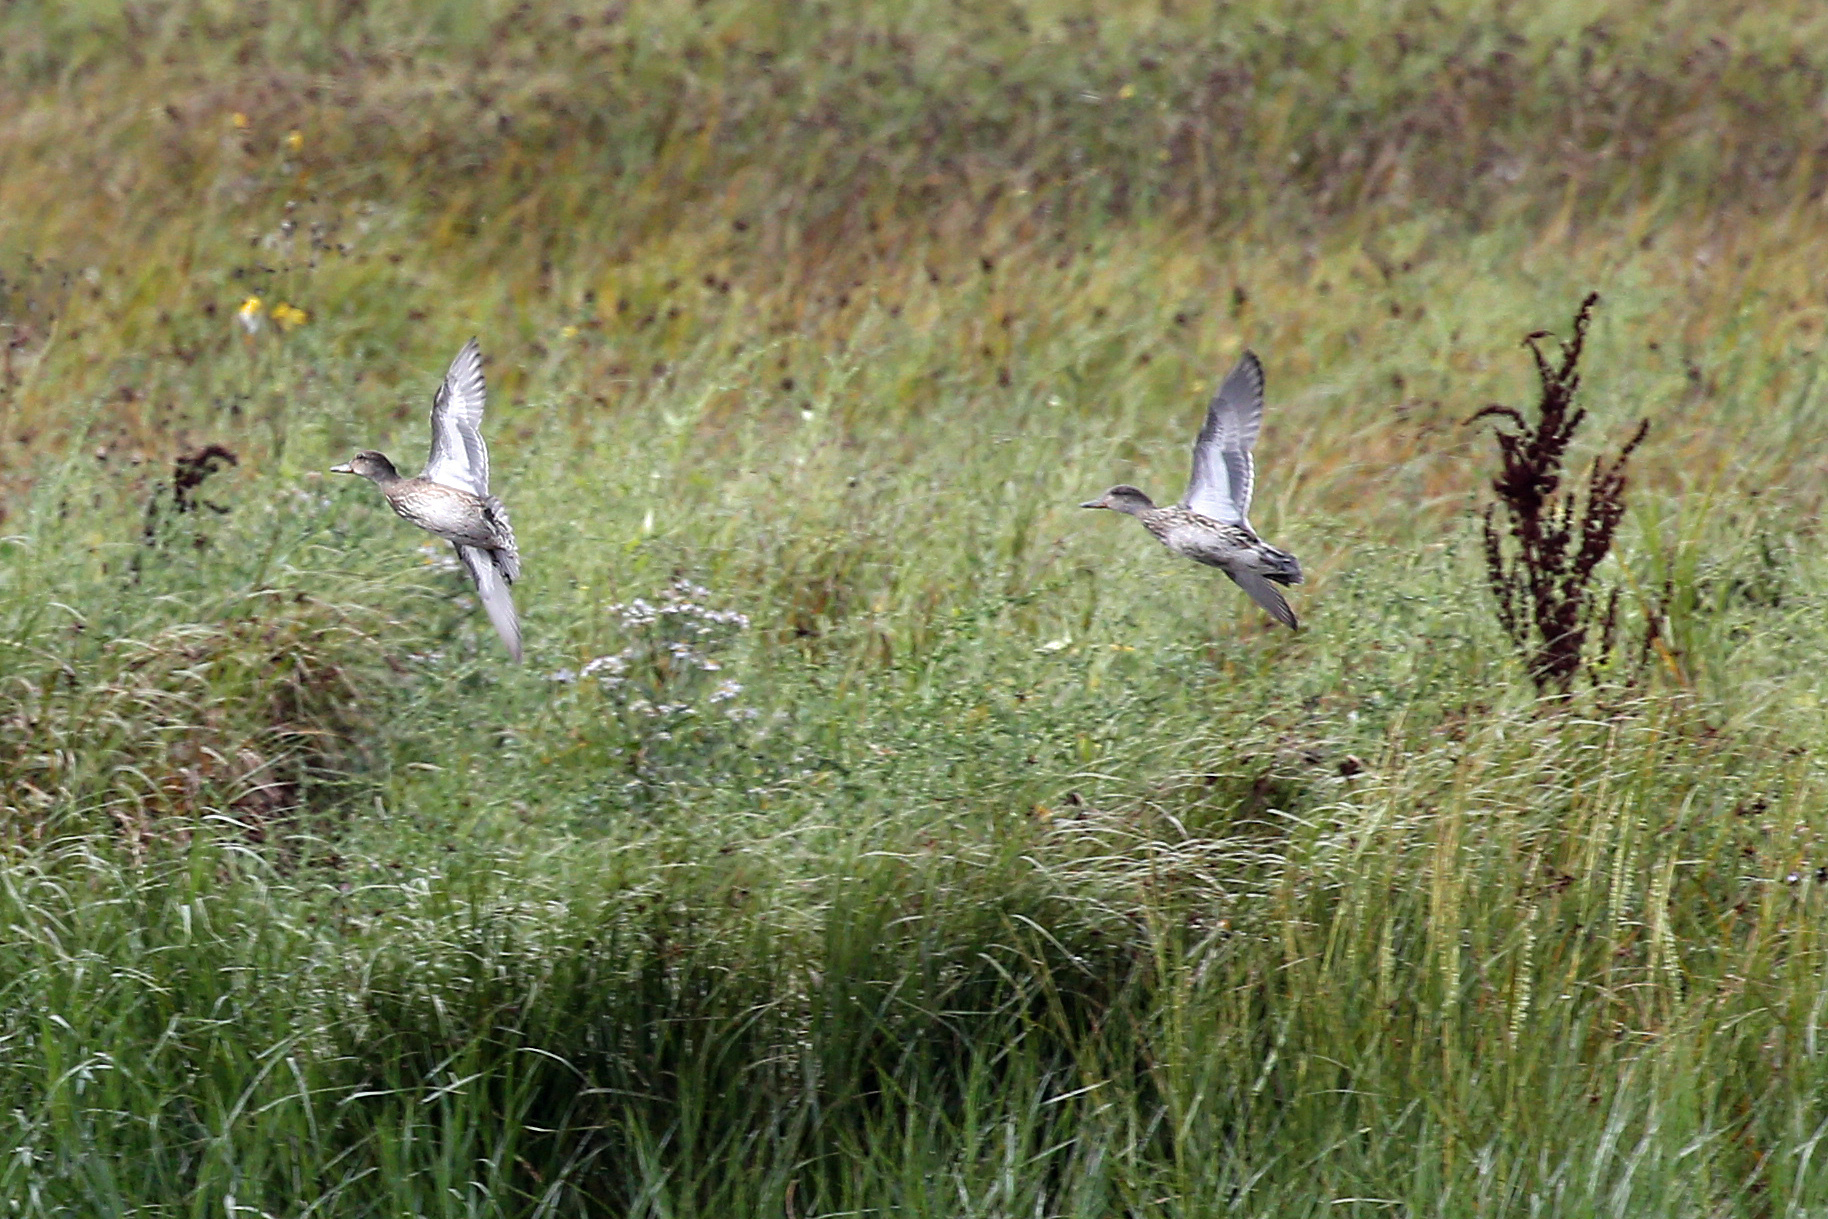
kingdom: Animalia
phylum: Chordata
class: Aves
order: Anseriformes
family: Anatidae
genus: Anas
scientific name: Anas crecca
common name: Eurasian teal
